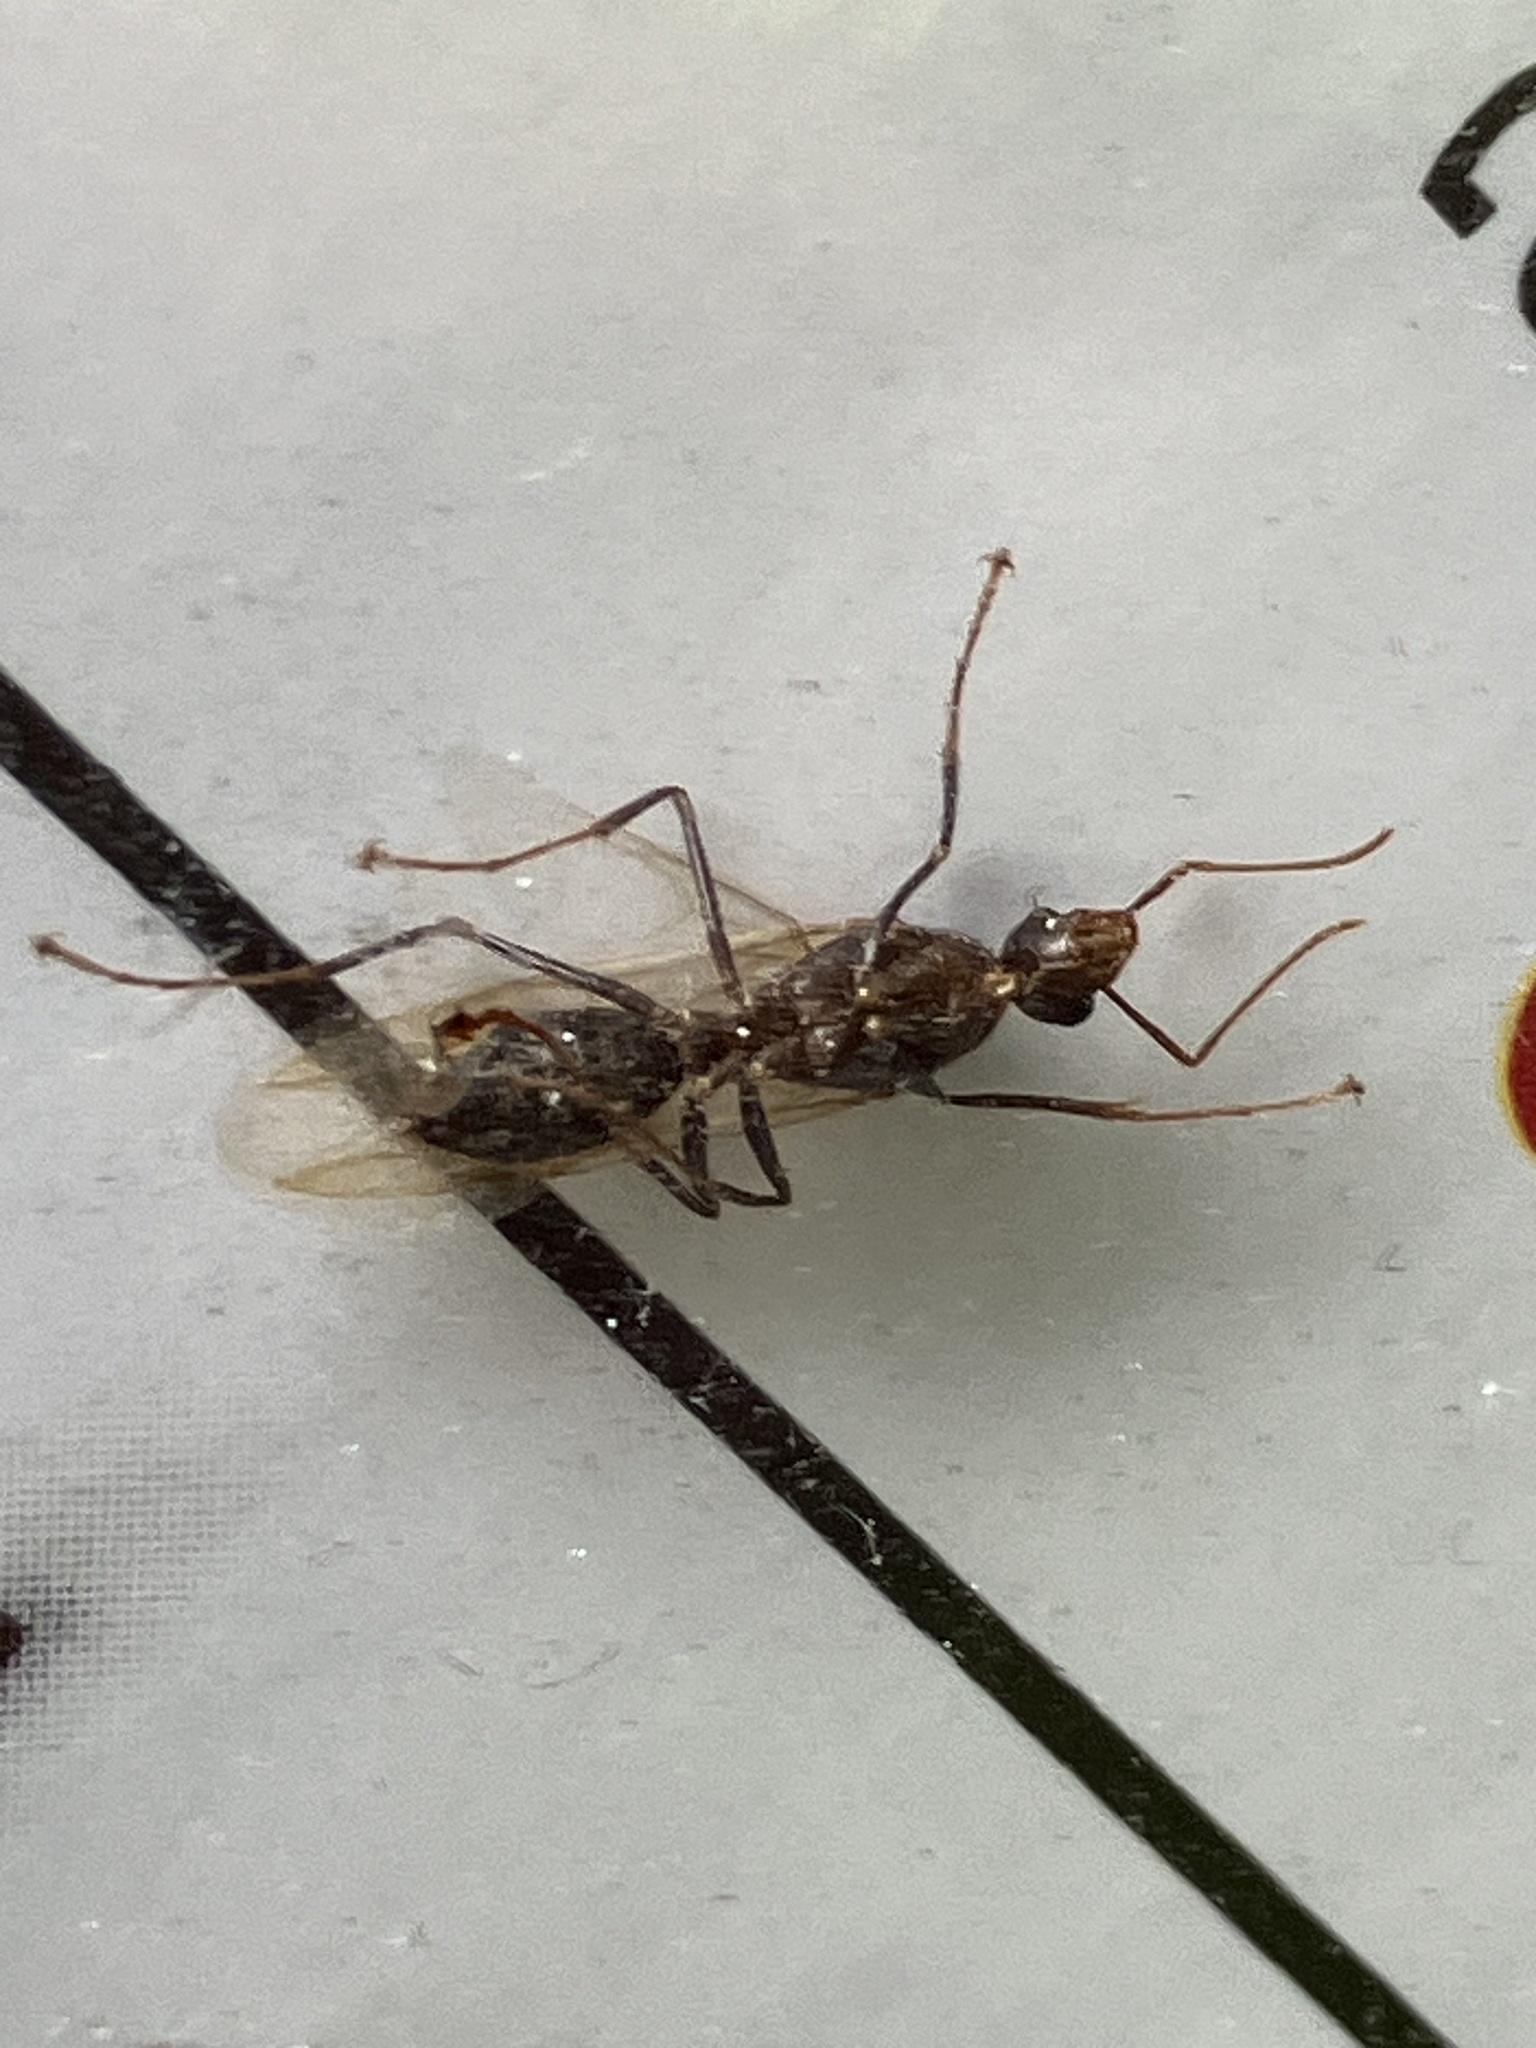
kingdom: Animalia
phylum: Arthropoda
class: Insecta
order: Hymenoptera
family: Formicidae
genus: Camponotus
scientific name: Camponotus floridanus
